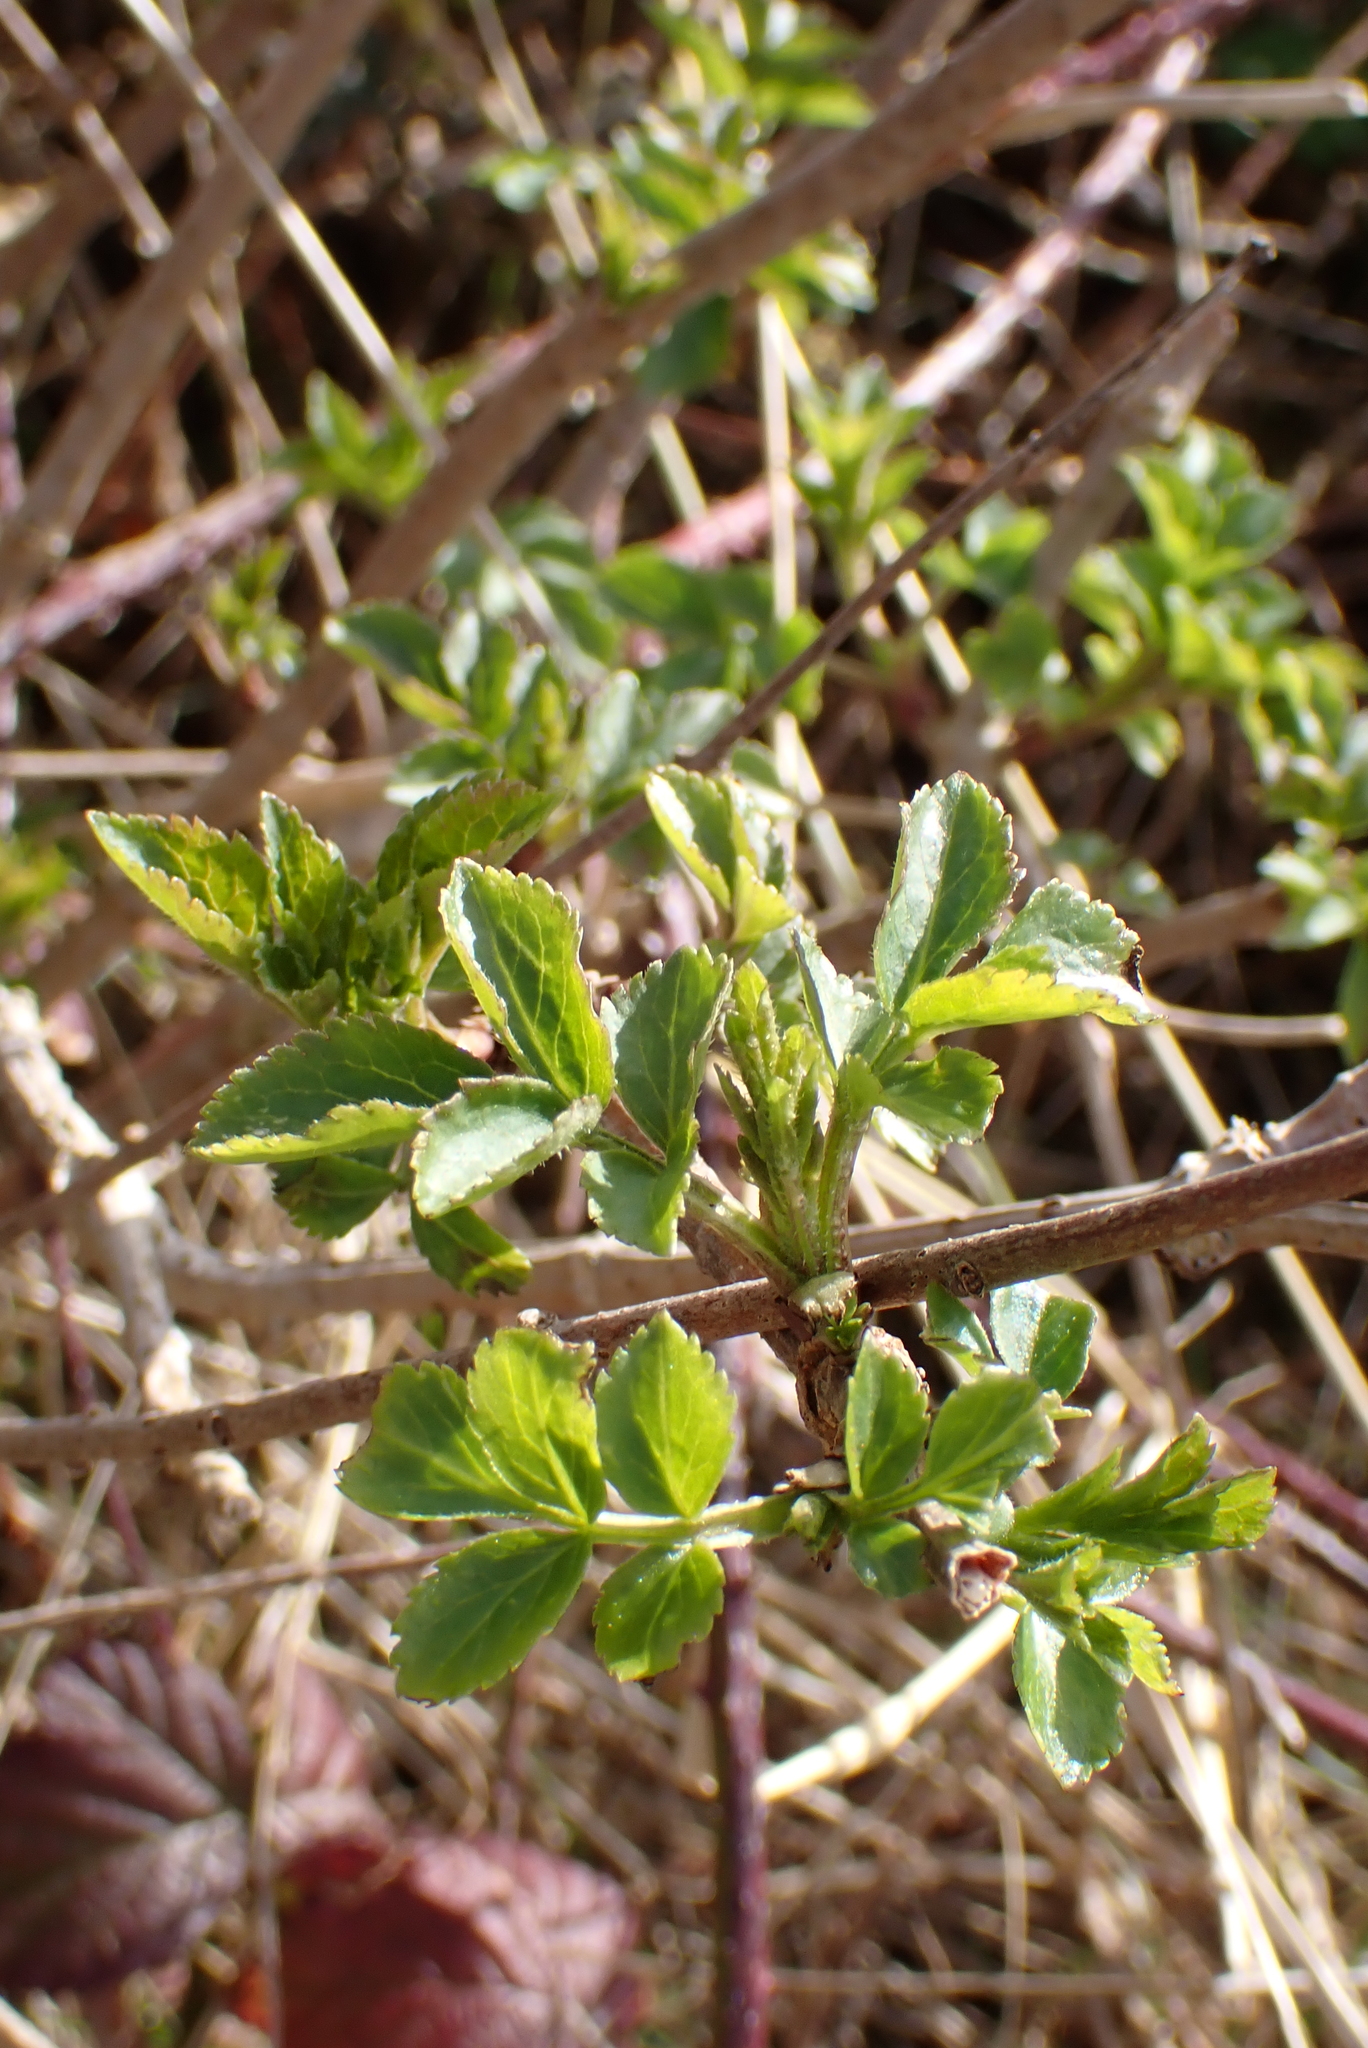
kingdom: Plantae
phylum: Tracheophyta
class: Magnoliopsida
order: Dipsacales
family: Viburnaceae
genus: Sambucus
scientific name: Sambucus nigra
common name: Elder
